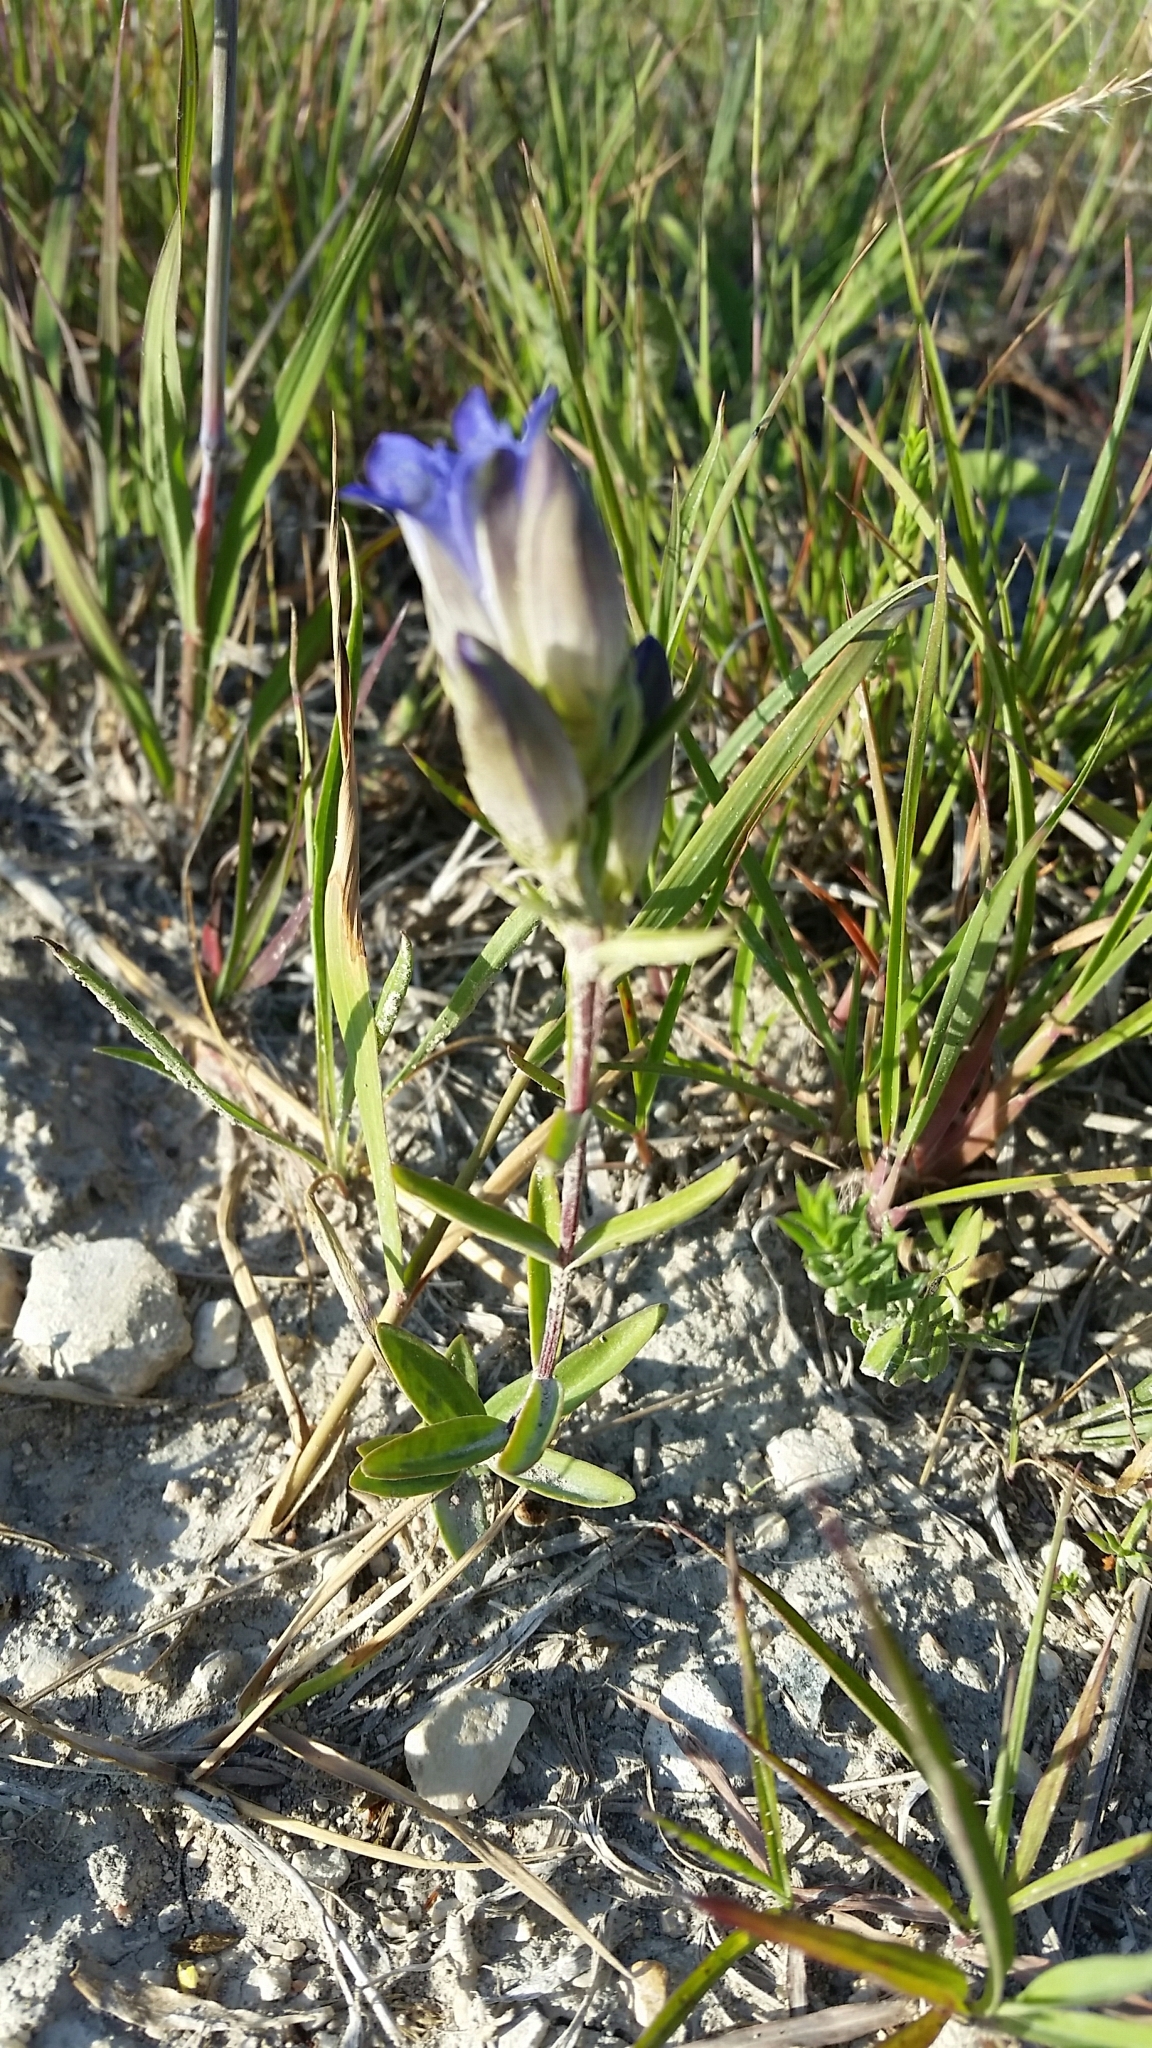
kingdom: Plantae
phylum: Tracheophyta
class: Magnoliopsida
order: Gentianales
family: Gentianaceae
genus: Gentiana
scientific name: Gentiana affinis
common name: Rocky mountain gentian
